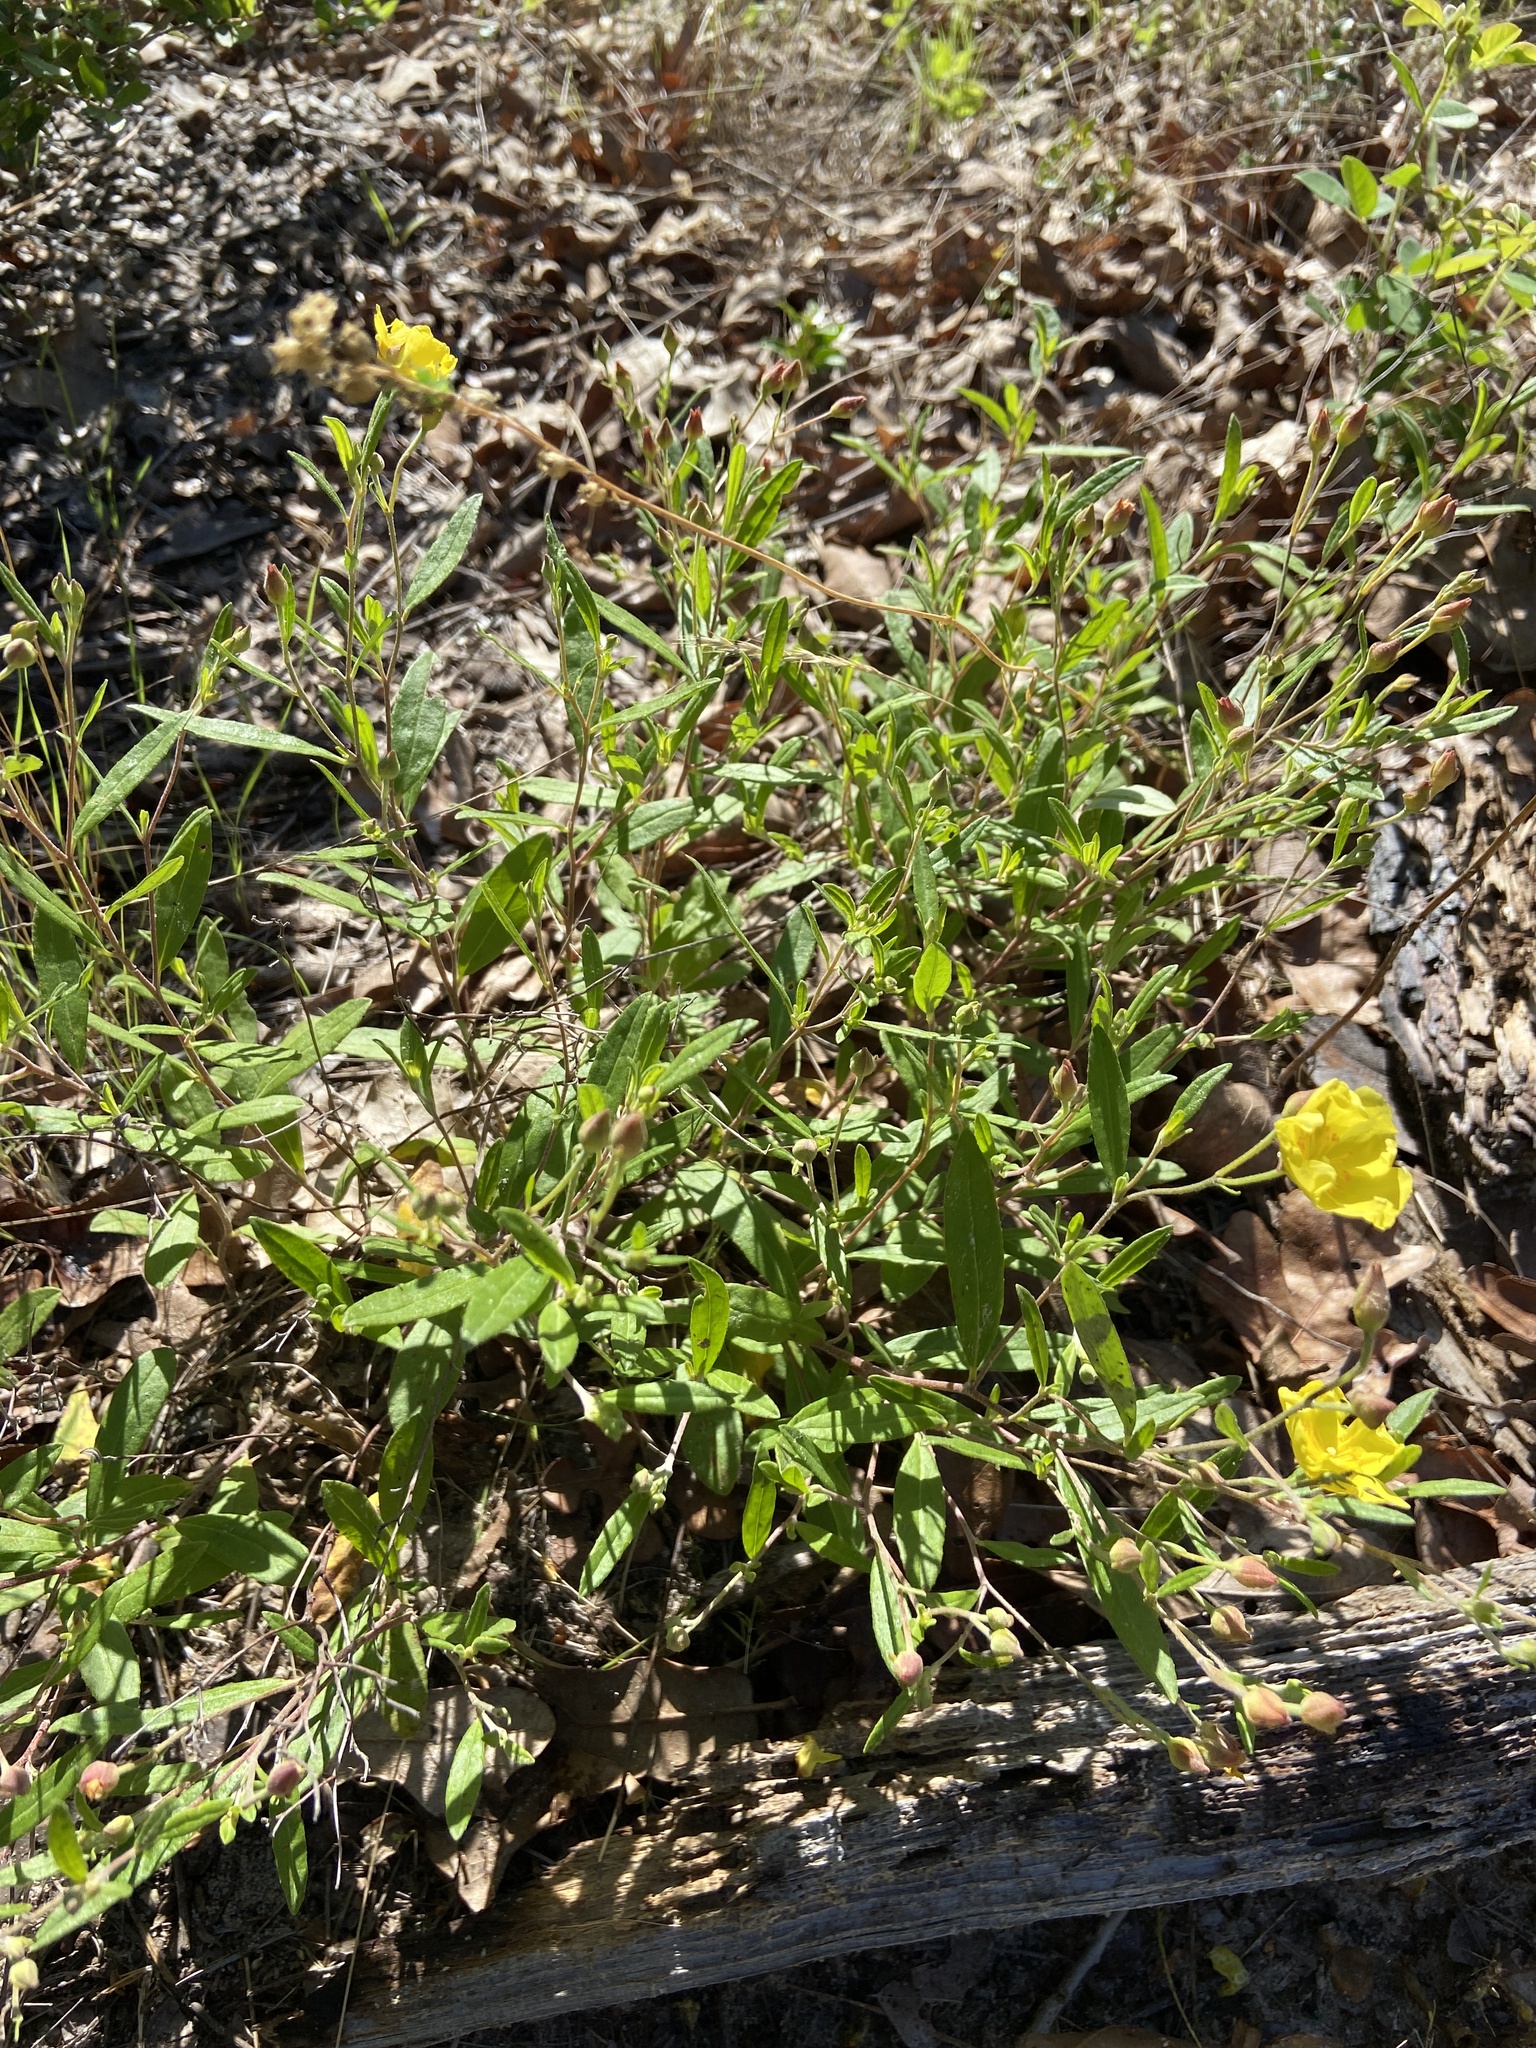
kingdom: Plantae
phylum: Tracheophyta
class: Magnoliopsida
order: Malvales
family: Cistaceae
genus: Crocanthemum
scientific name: Crocanthemum georgianum
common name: Georgia frostweed
